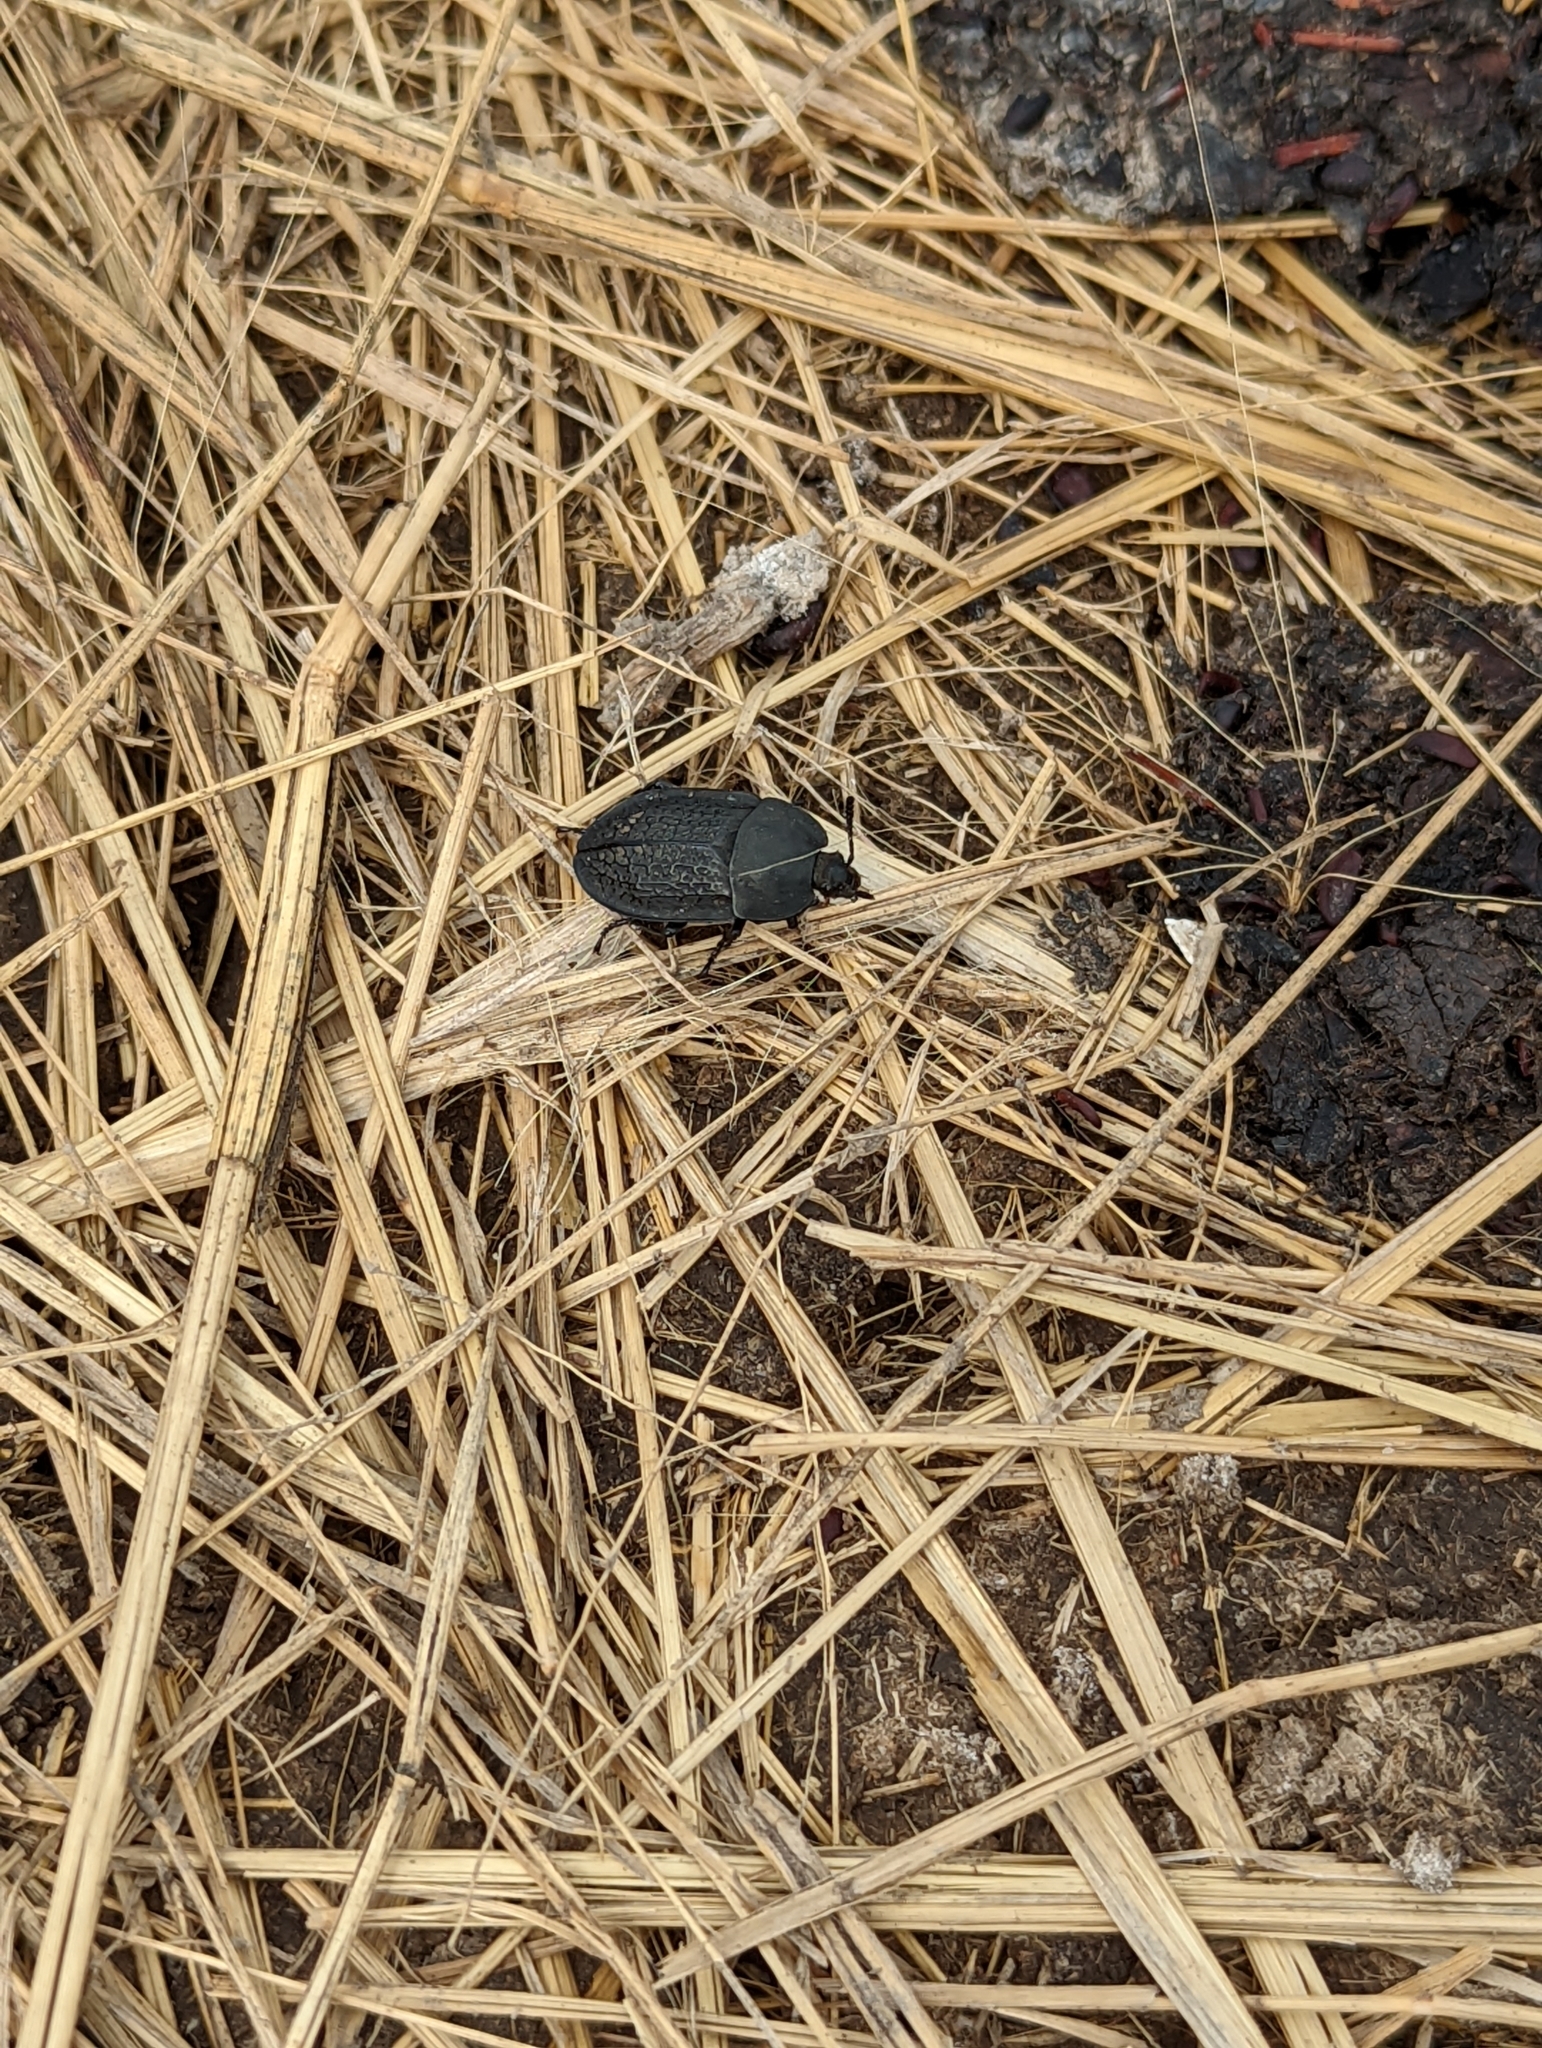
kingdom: Animalia
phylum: Arthropoda
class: Insecta
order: Coleoptera
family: Staphylinidae
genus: Heterosilpha
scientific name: Heterosilpha ramosa
